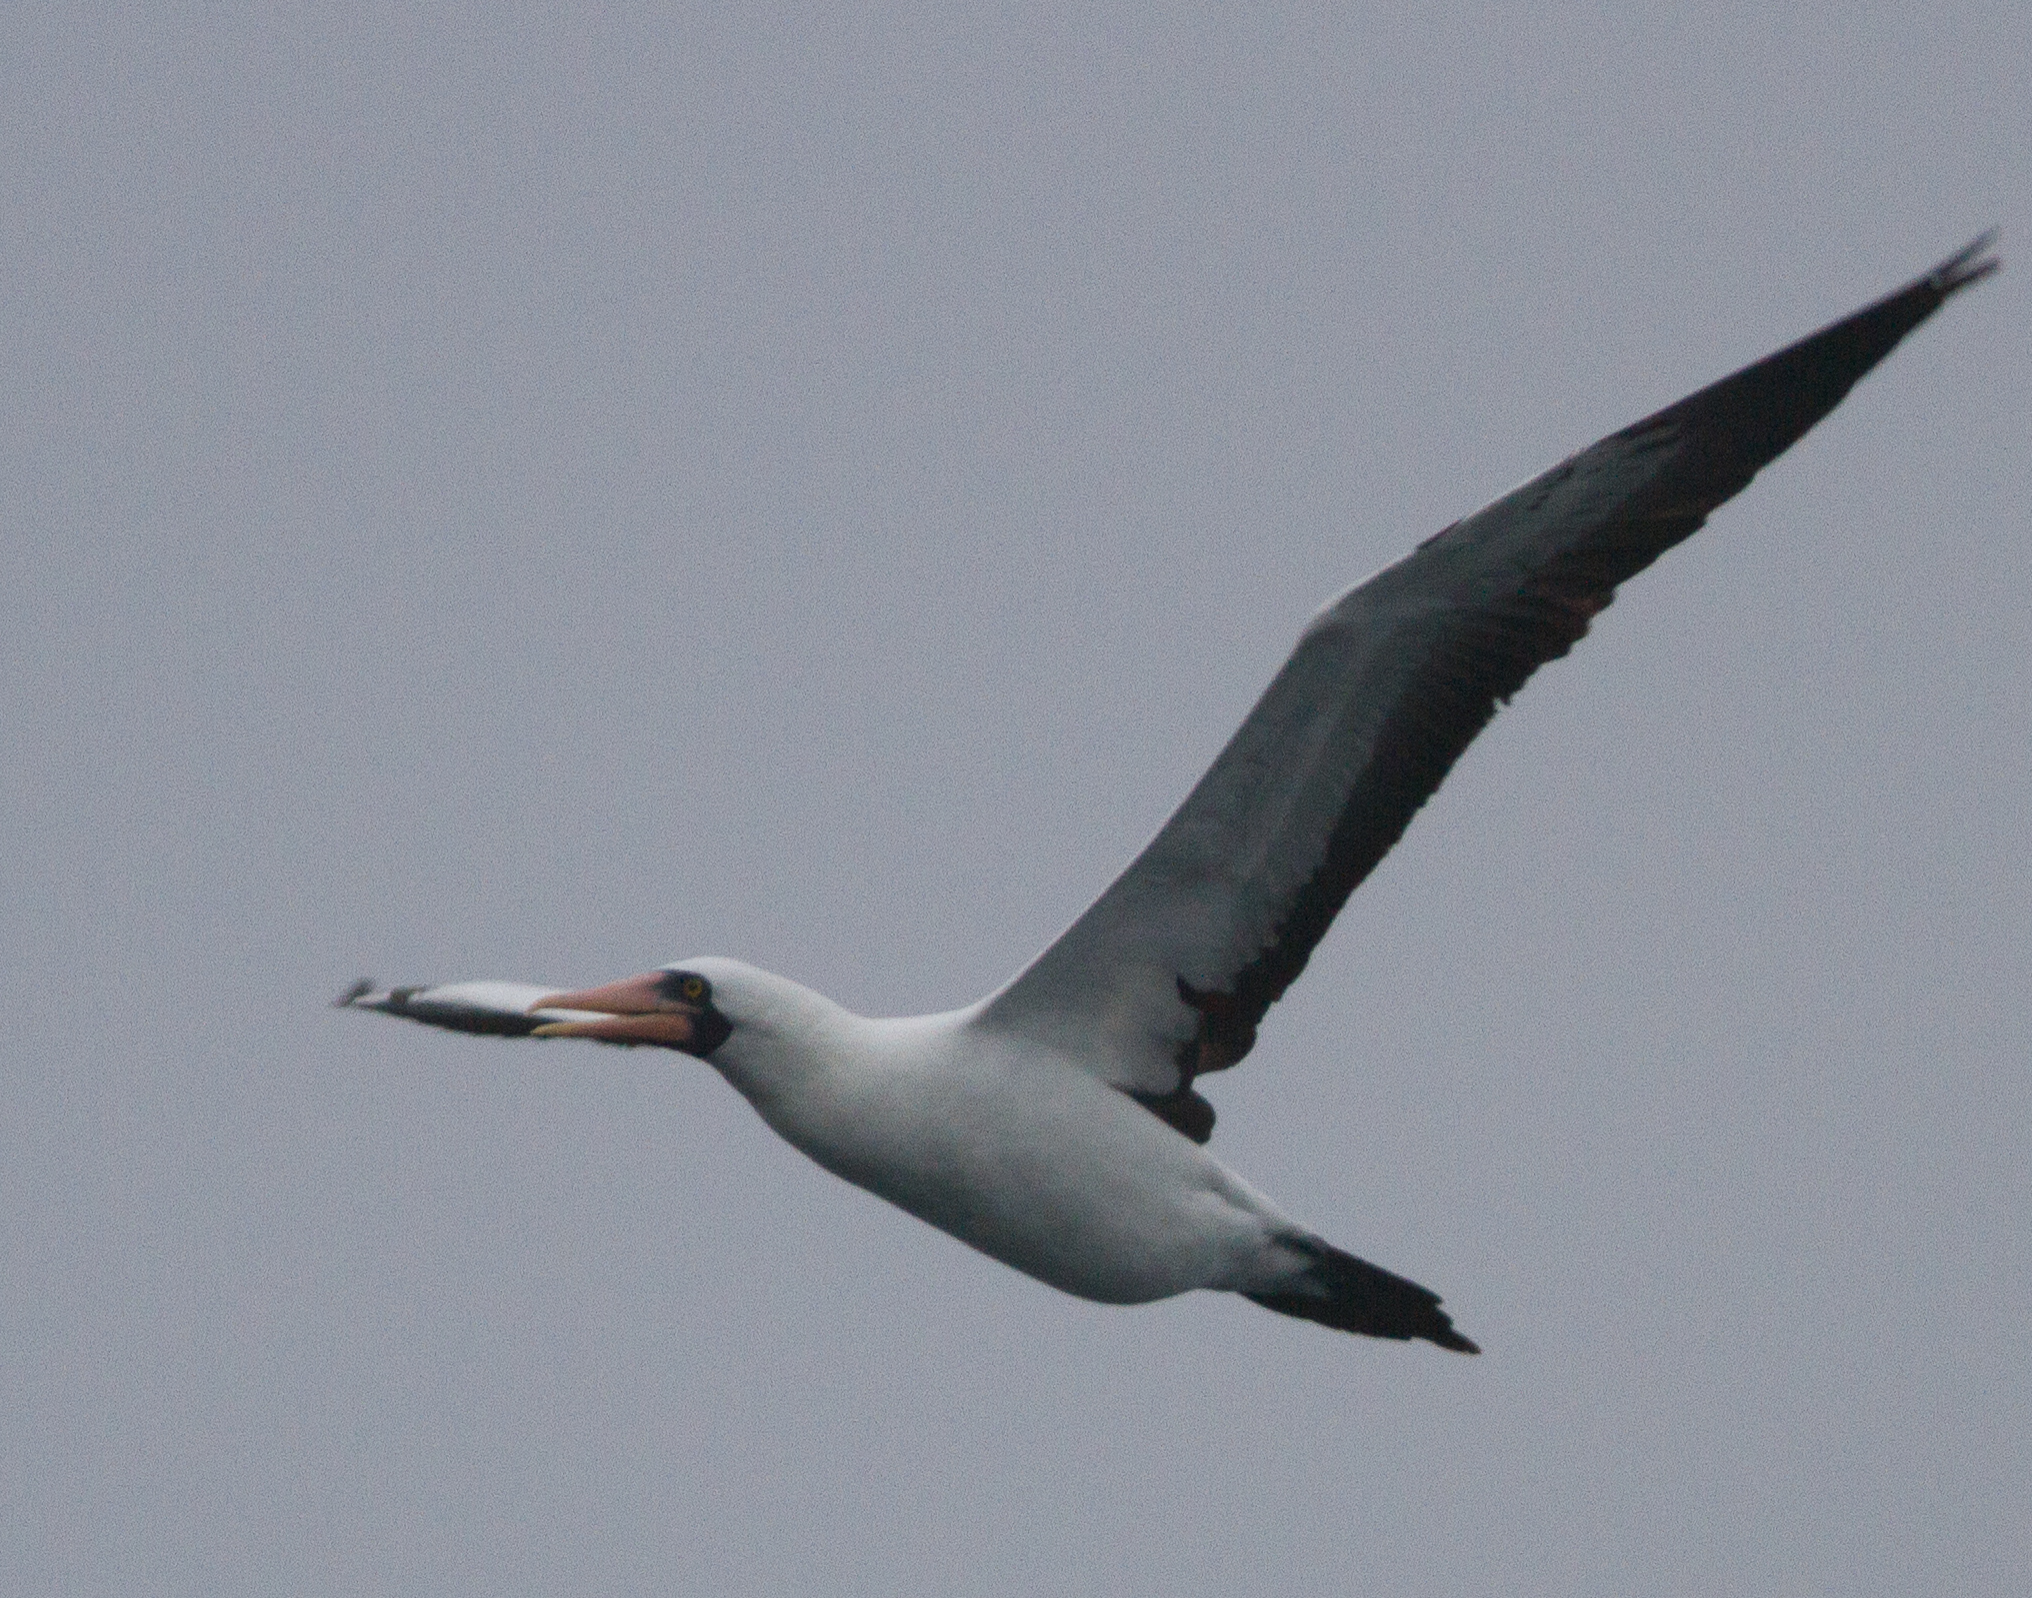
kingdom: Animalia
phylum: Chordata
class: Aves
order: Suliformes
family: Sulidae
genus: Sula
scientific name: Sula granti
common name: Nazca booby
